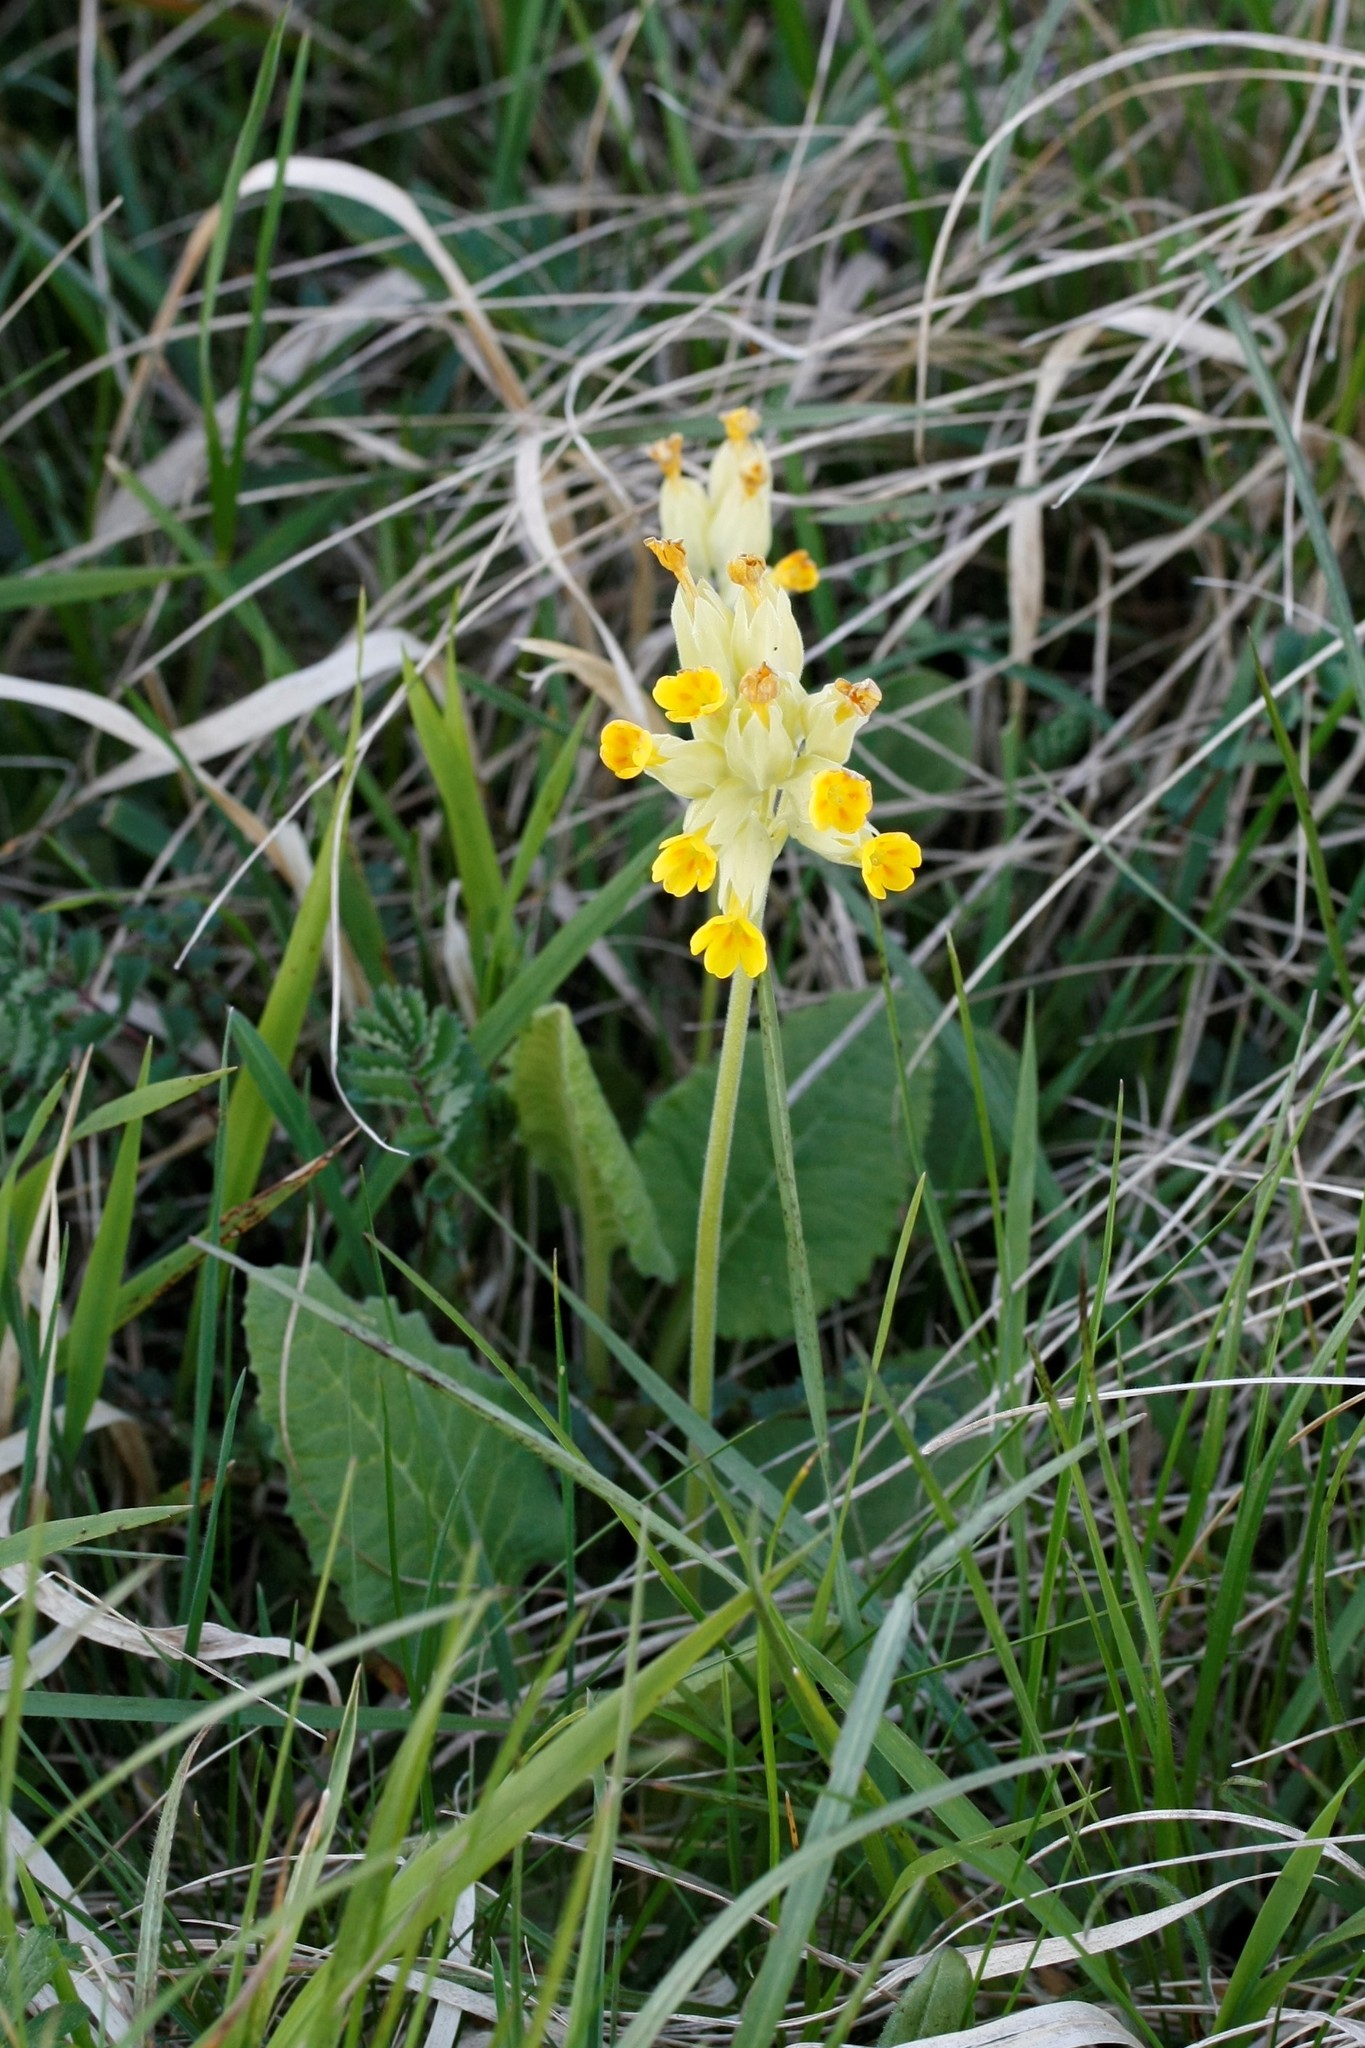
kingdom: Plantae
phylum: Tracheophyta
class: Magnoliopsida
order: Ericales
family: Primulaceae
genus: Primula
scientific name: Primula veris
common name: Cowslip
